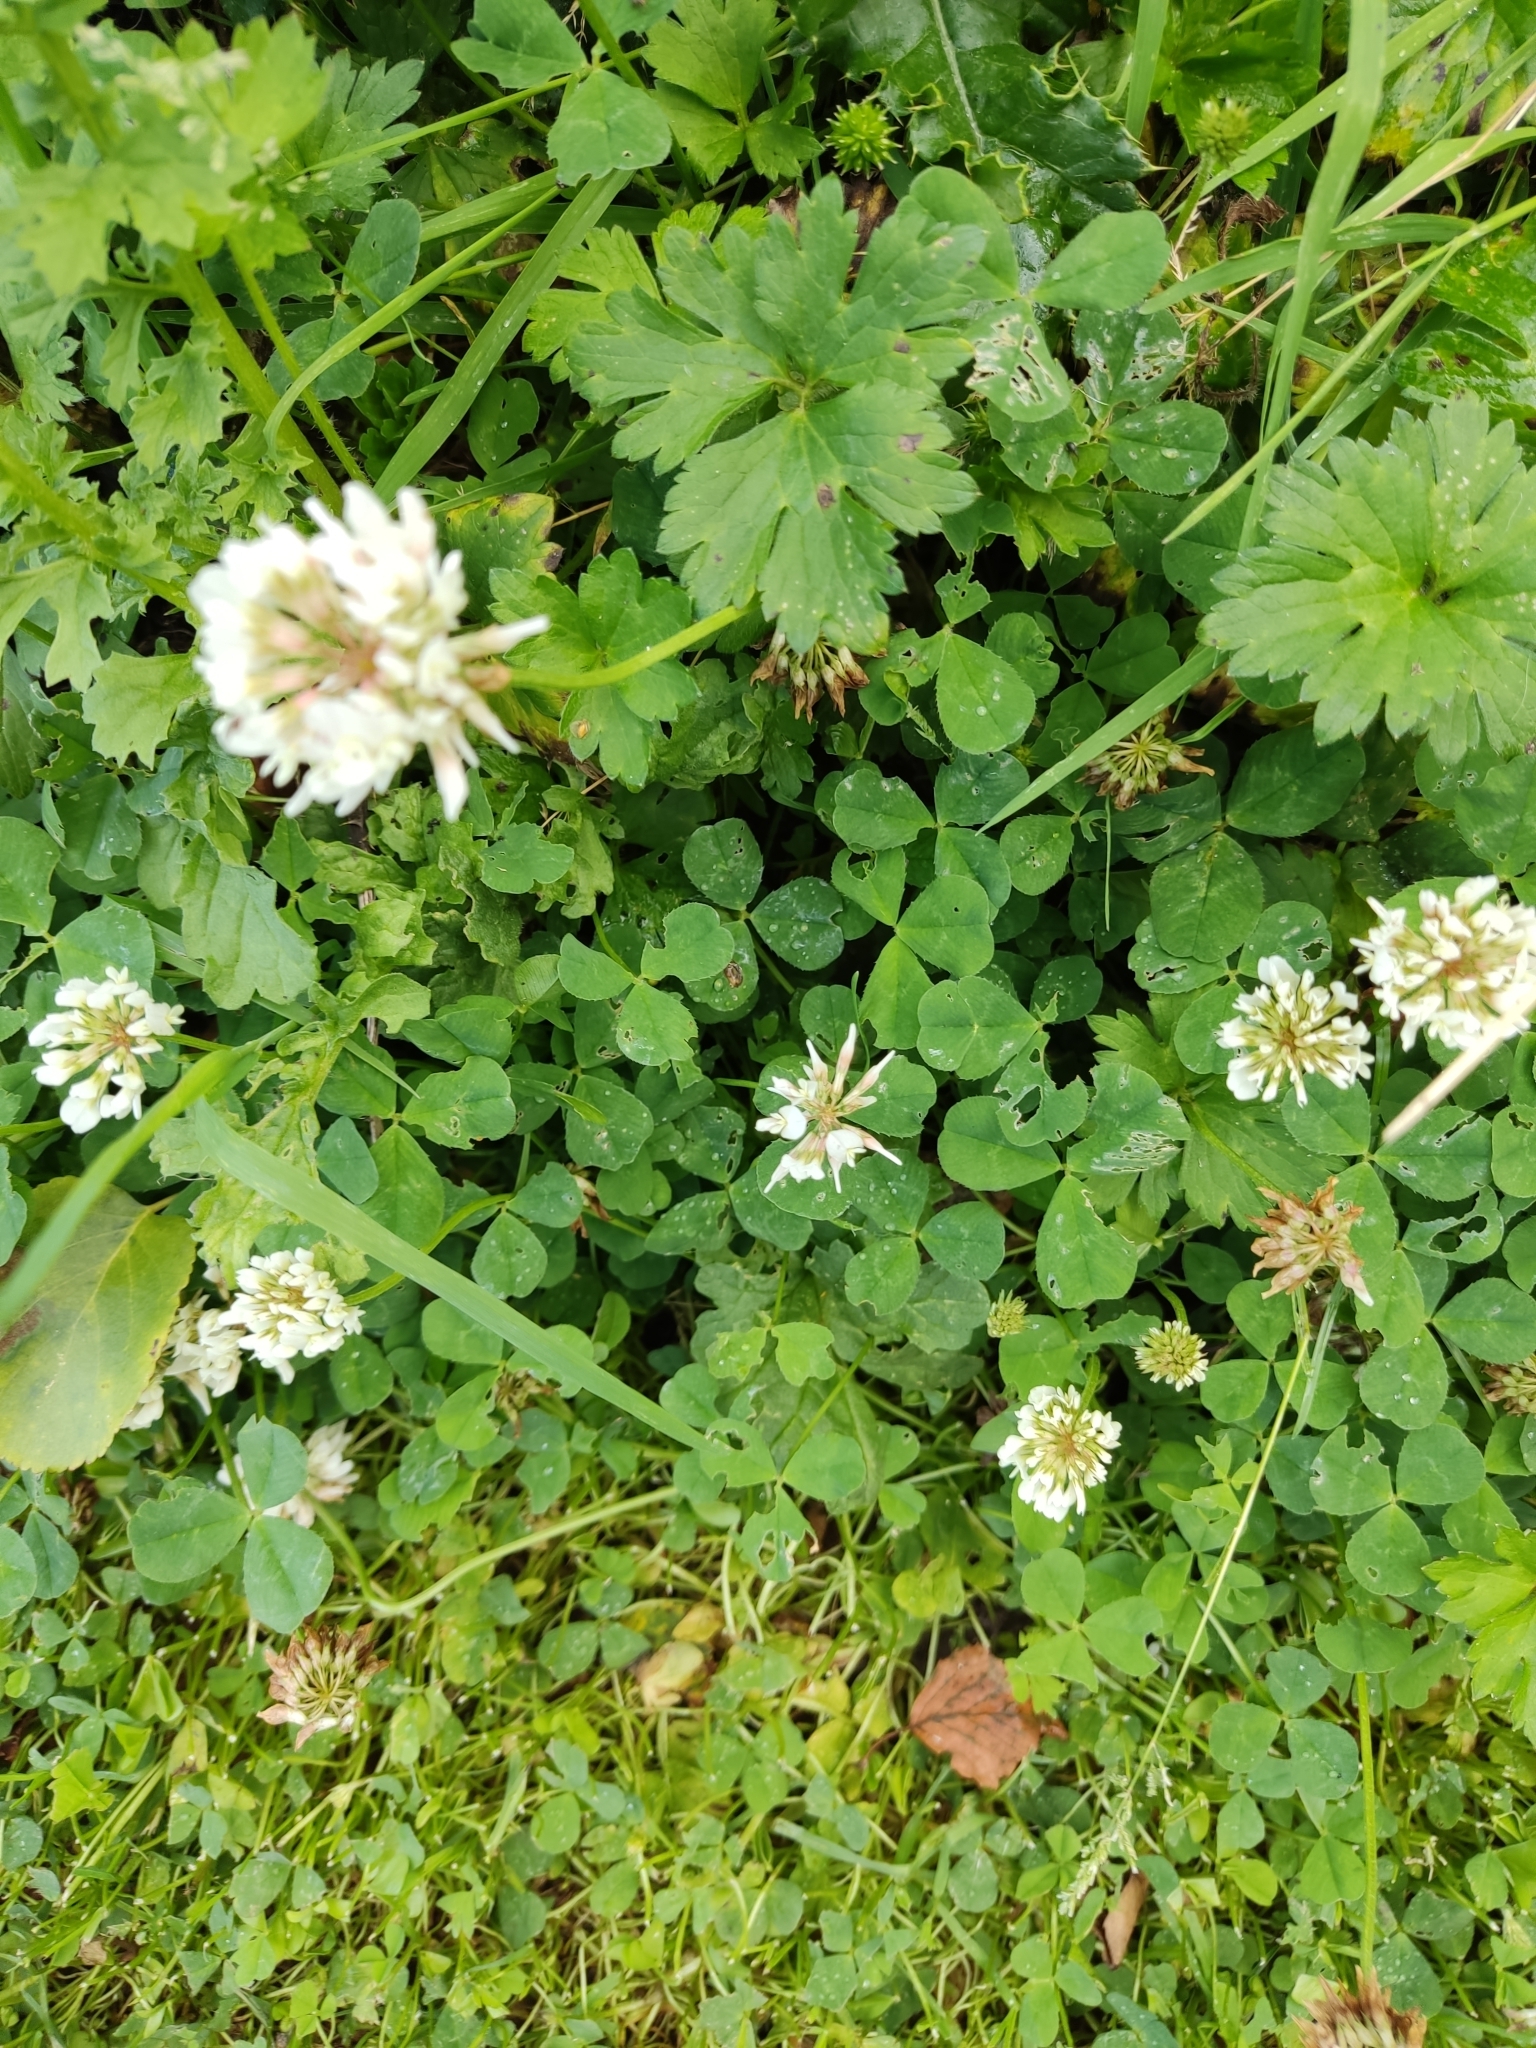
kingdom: Plantae
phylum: Tracheophyta
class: Magnoliopsida
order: Fabales
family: Fabaceae
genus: Trifolium
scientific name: Trifolium repens
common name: White clover
